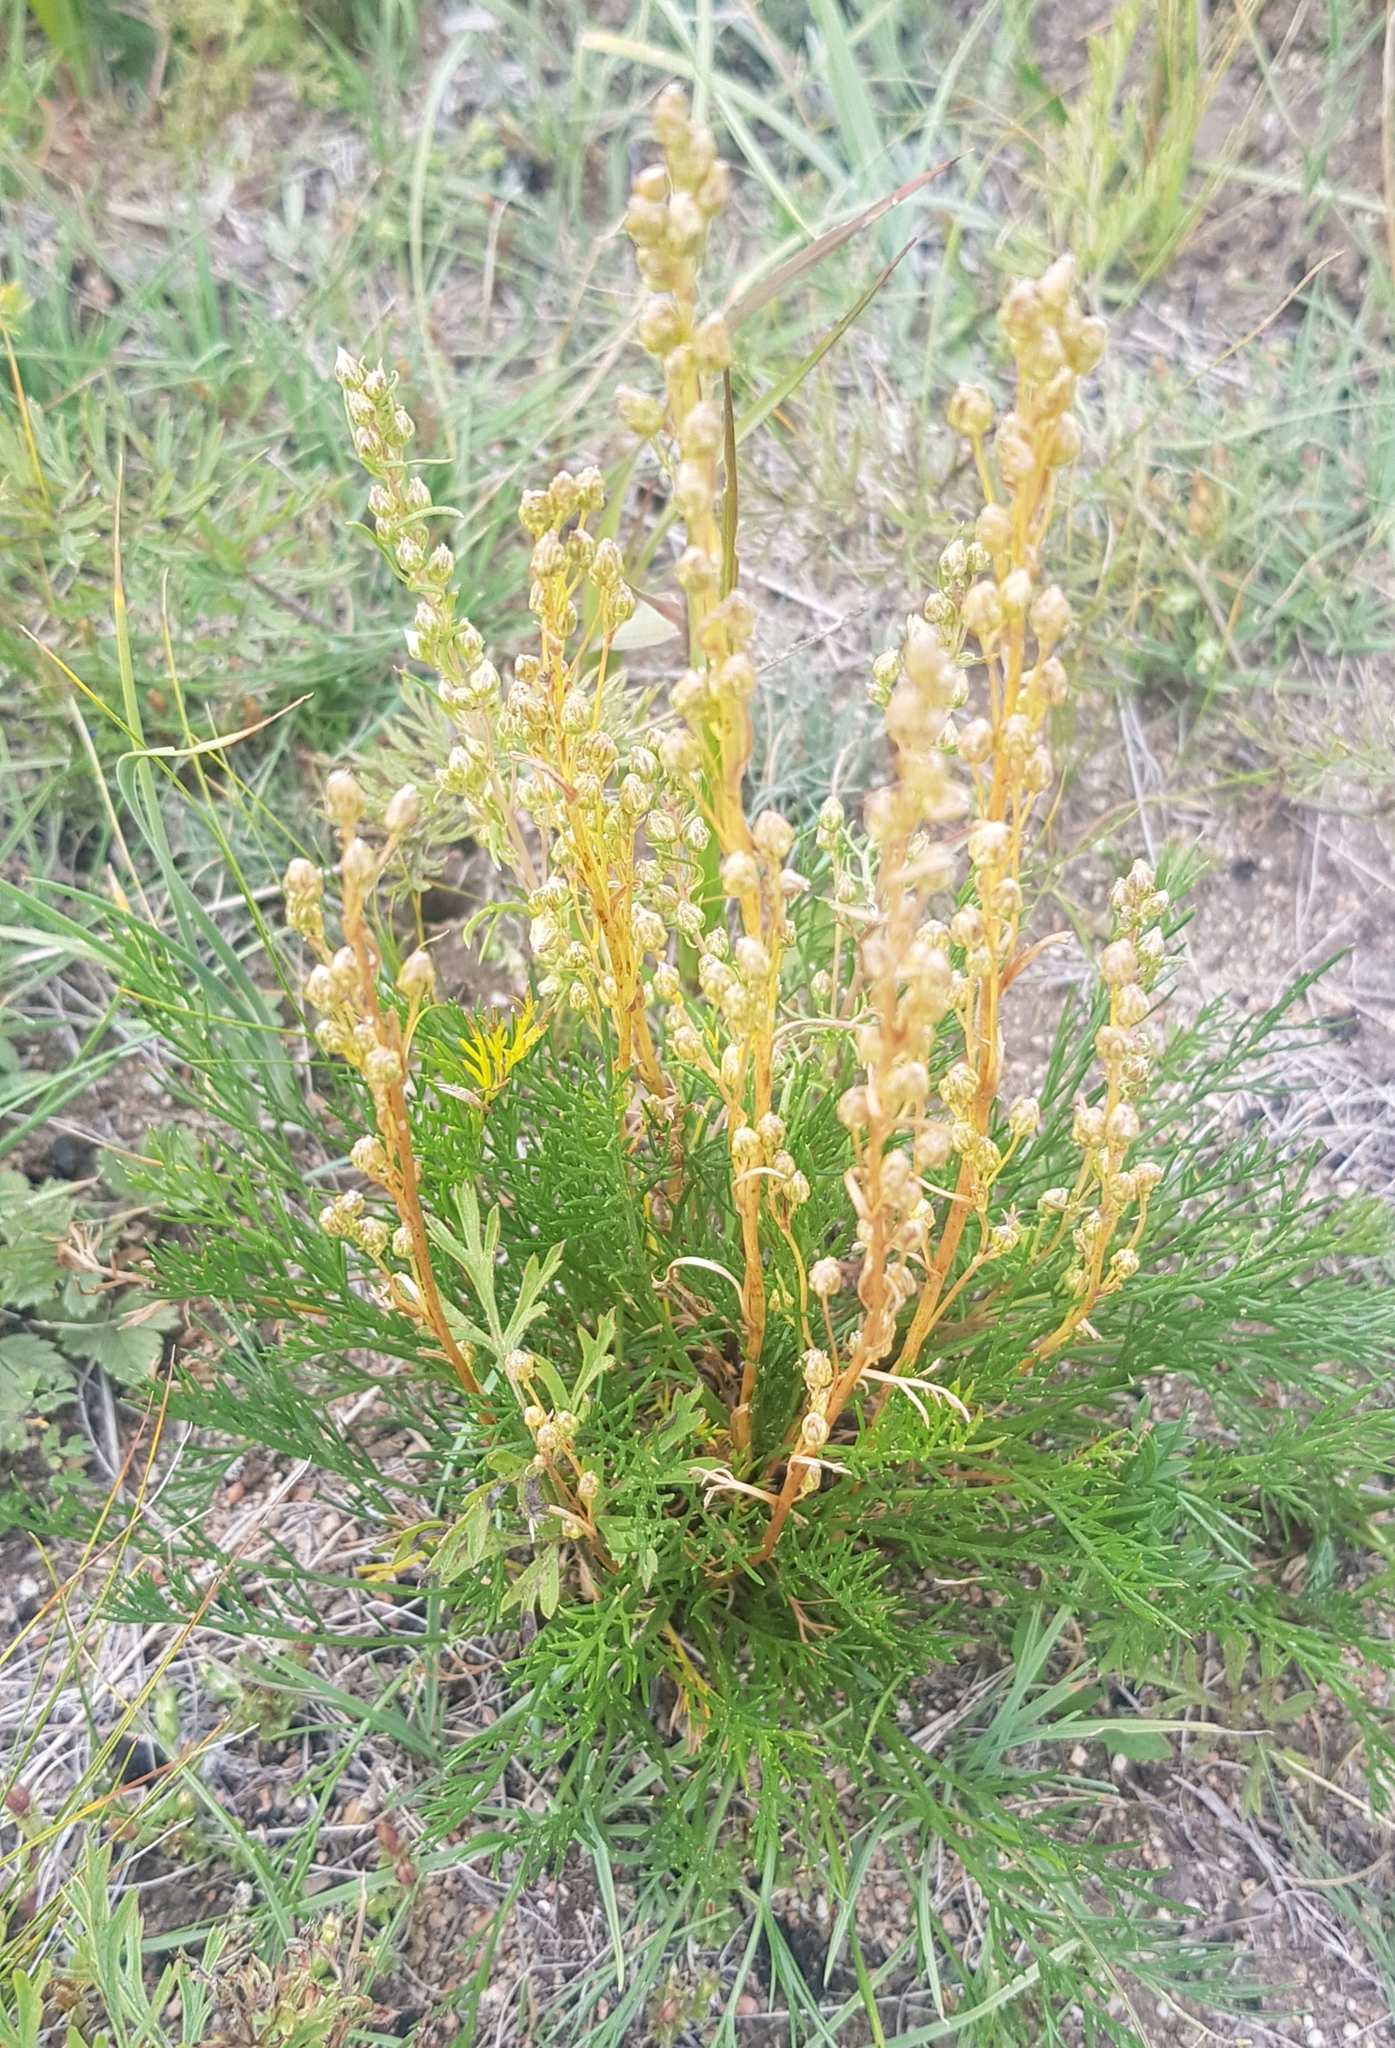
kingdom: Plantae
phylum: Tracheophyta
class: Magnoliopsida
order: Asterales
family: Asteraceae
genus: Artemisia
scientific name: Artemisia pubescens
